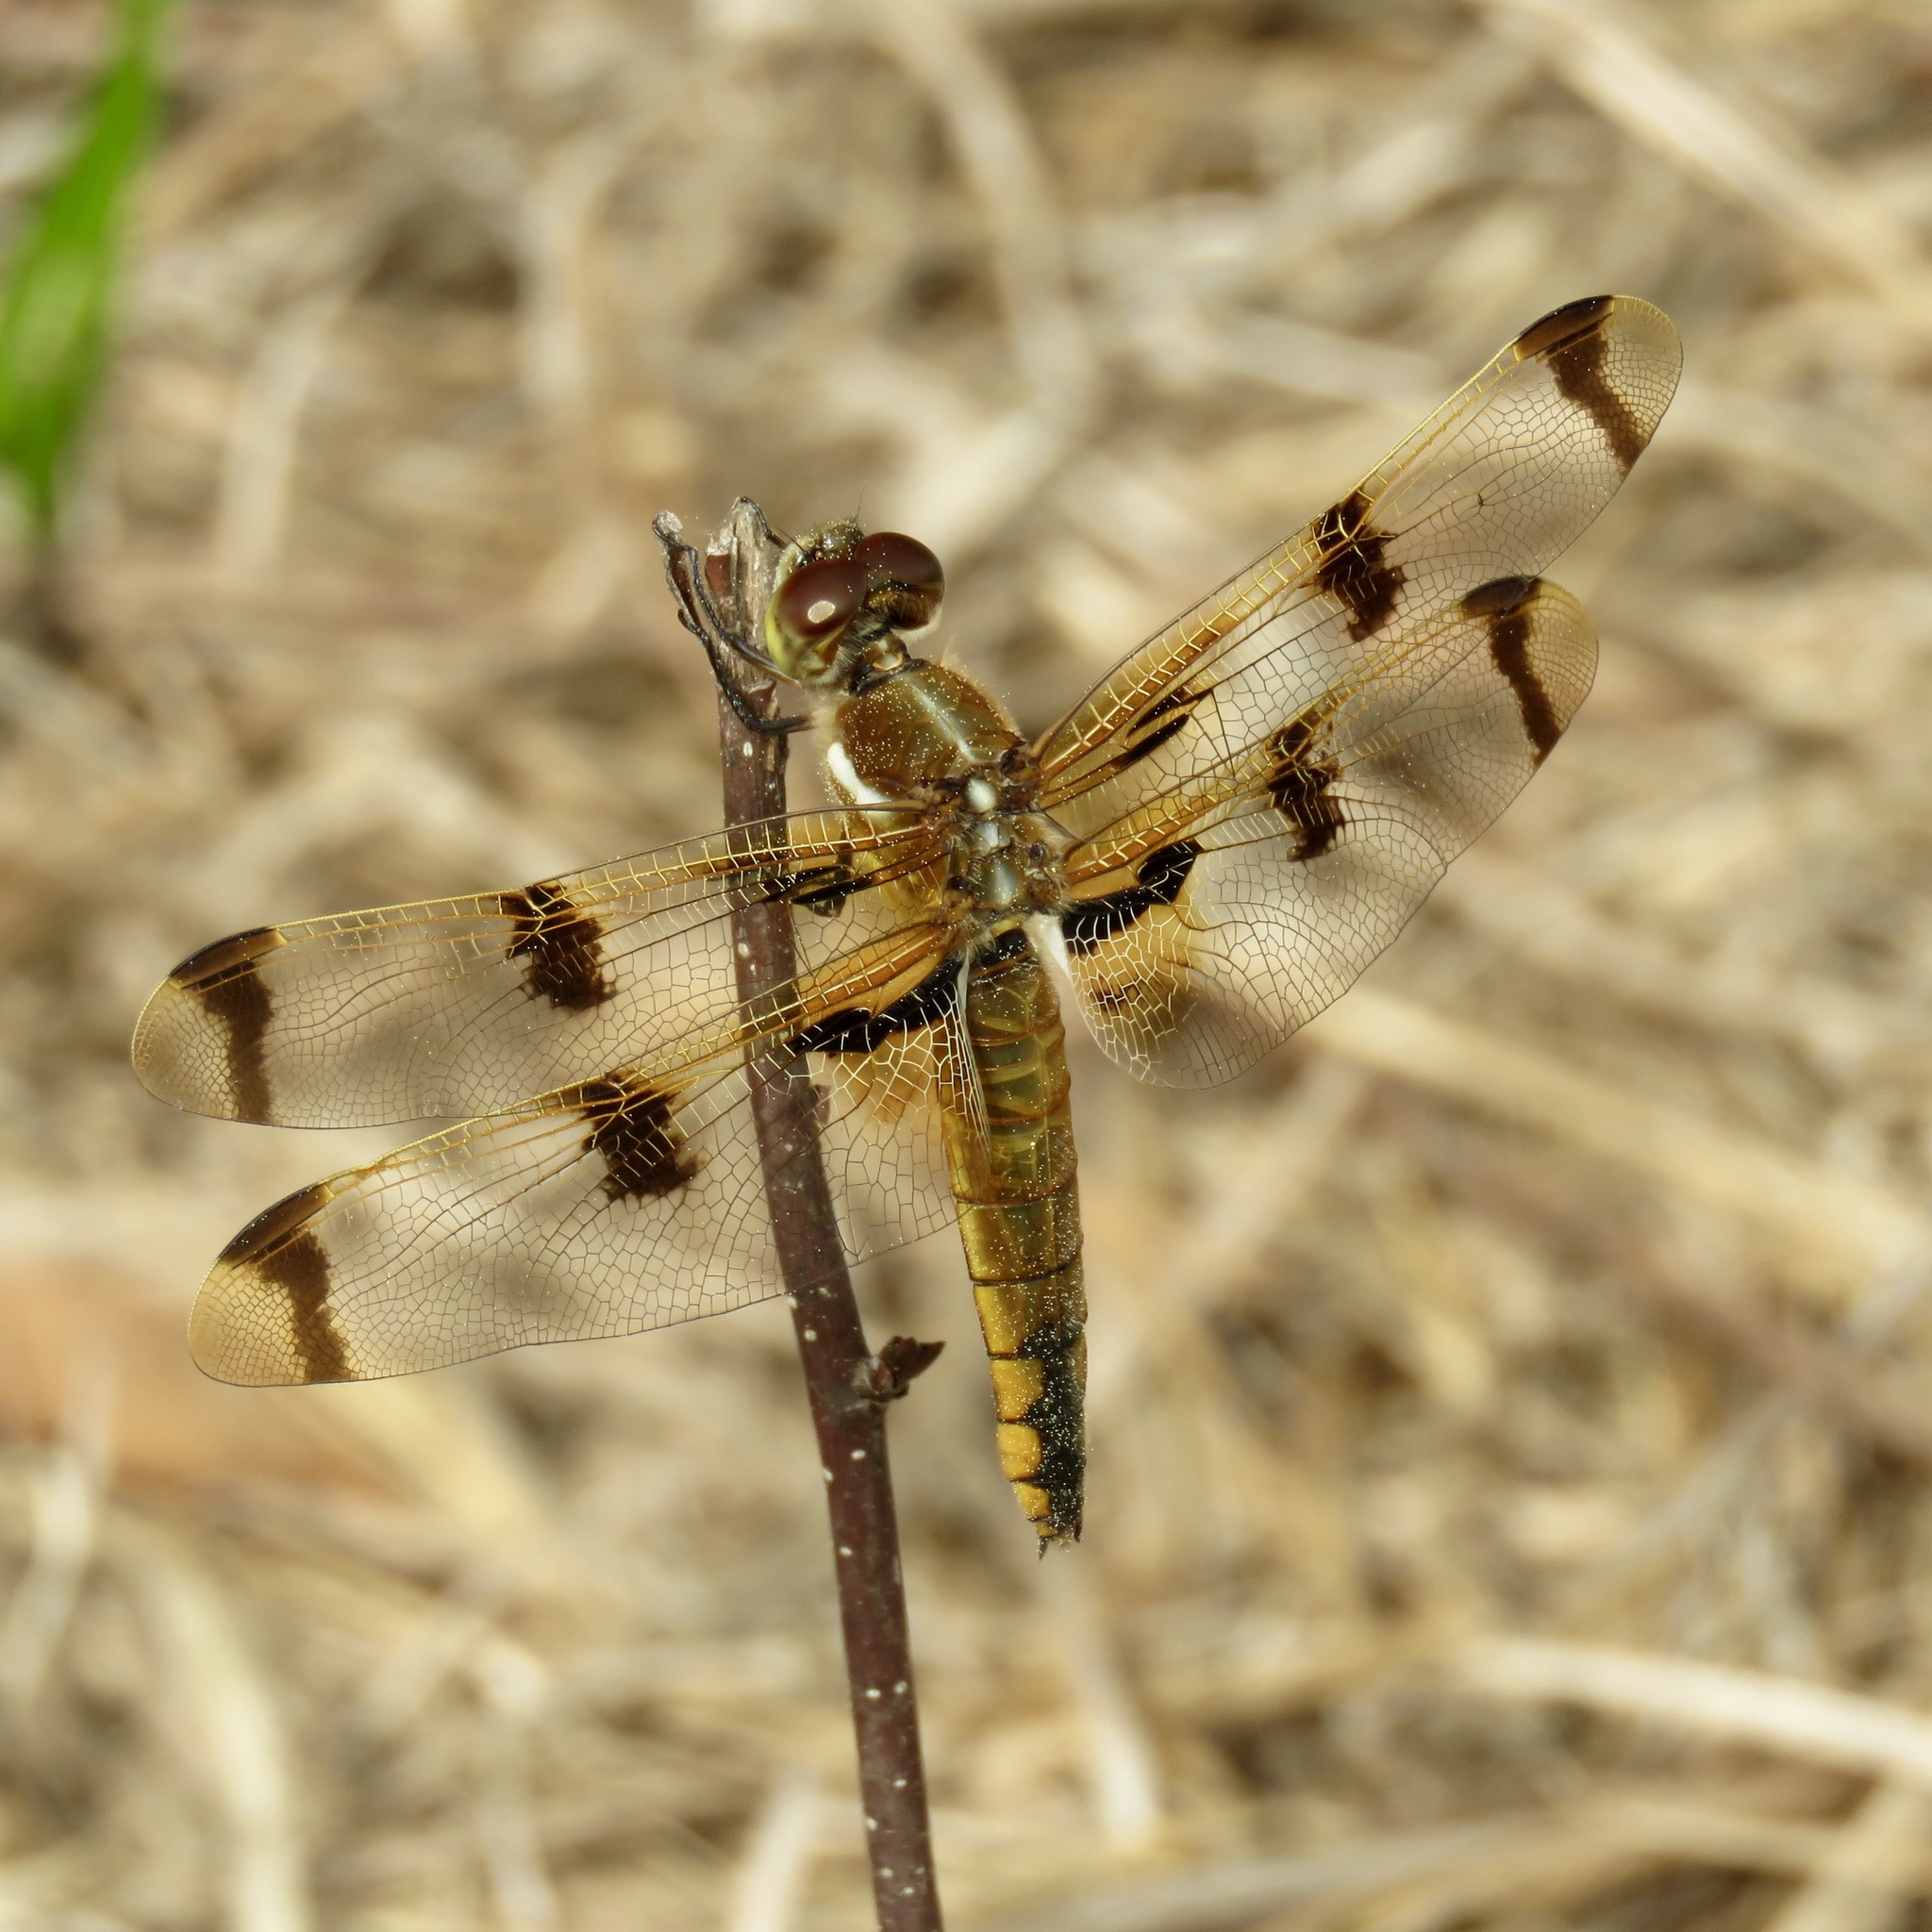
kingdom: Animalia
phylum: Arthropoda
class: Insecta
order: Odonata
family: Libellulidae
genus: Libellula
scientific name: Libellula semifasciata
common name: Painted skimmer
